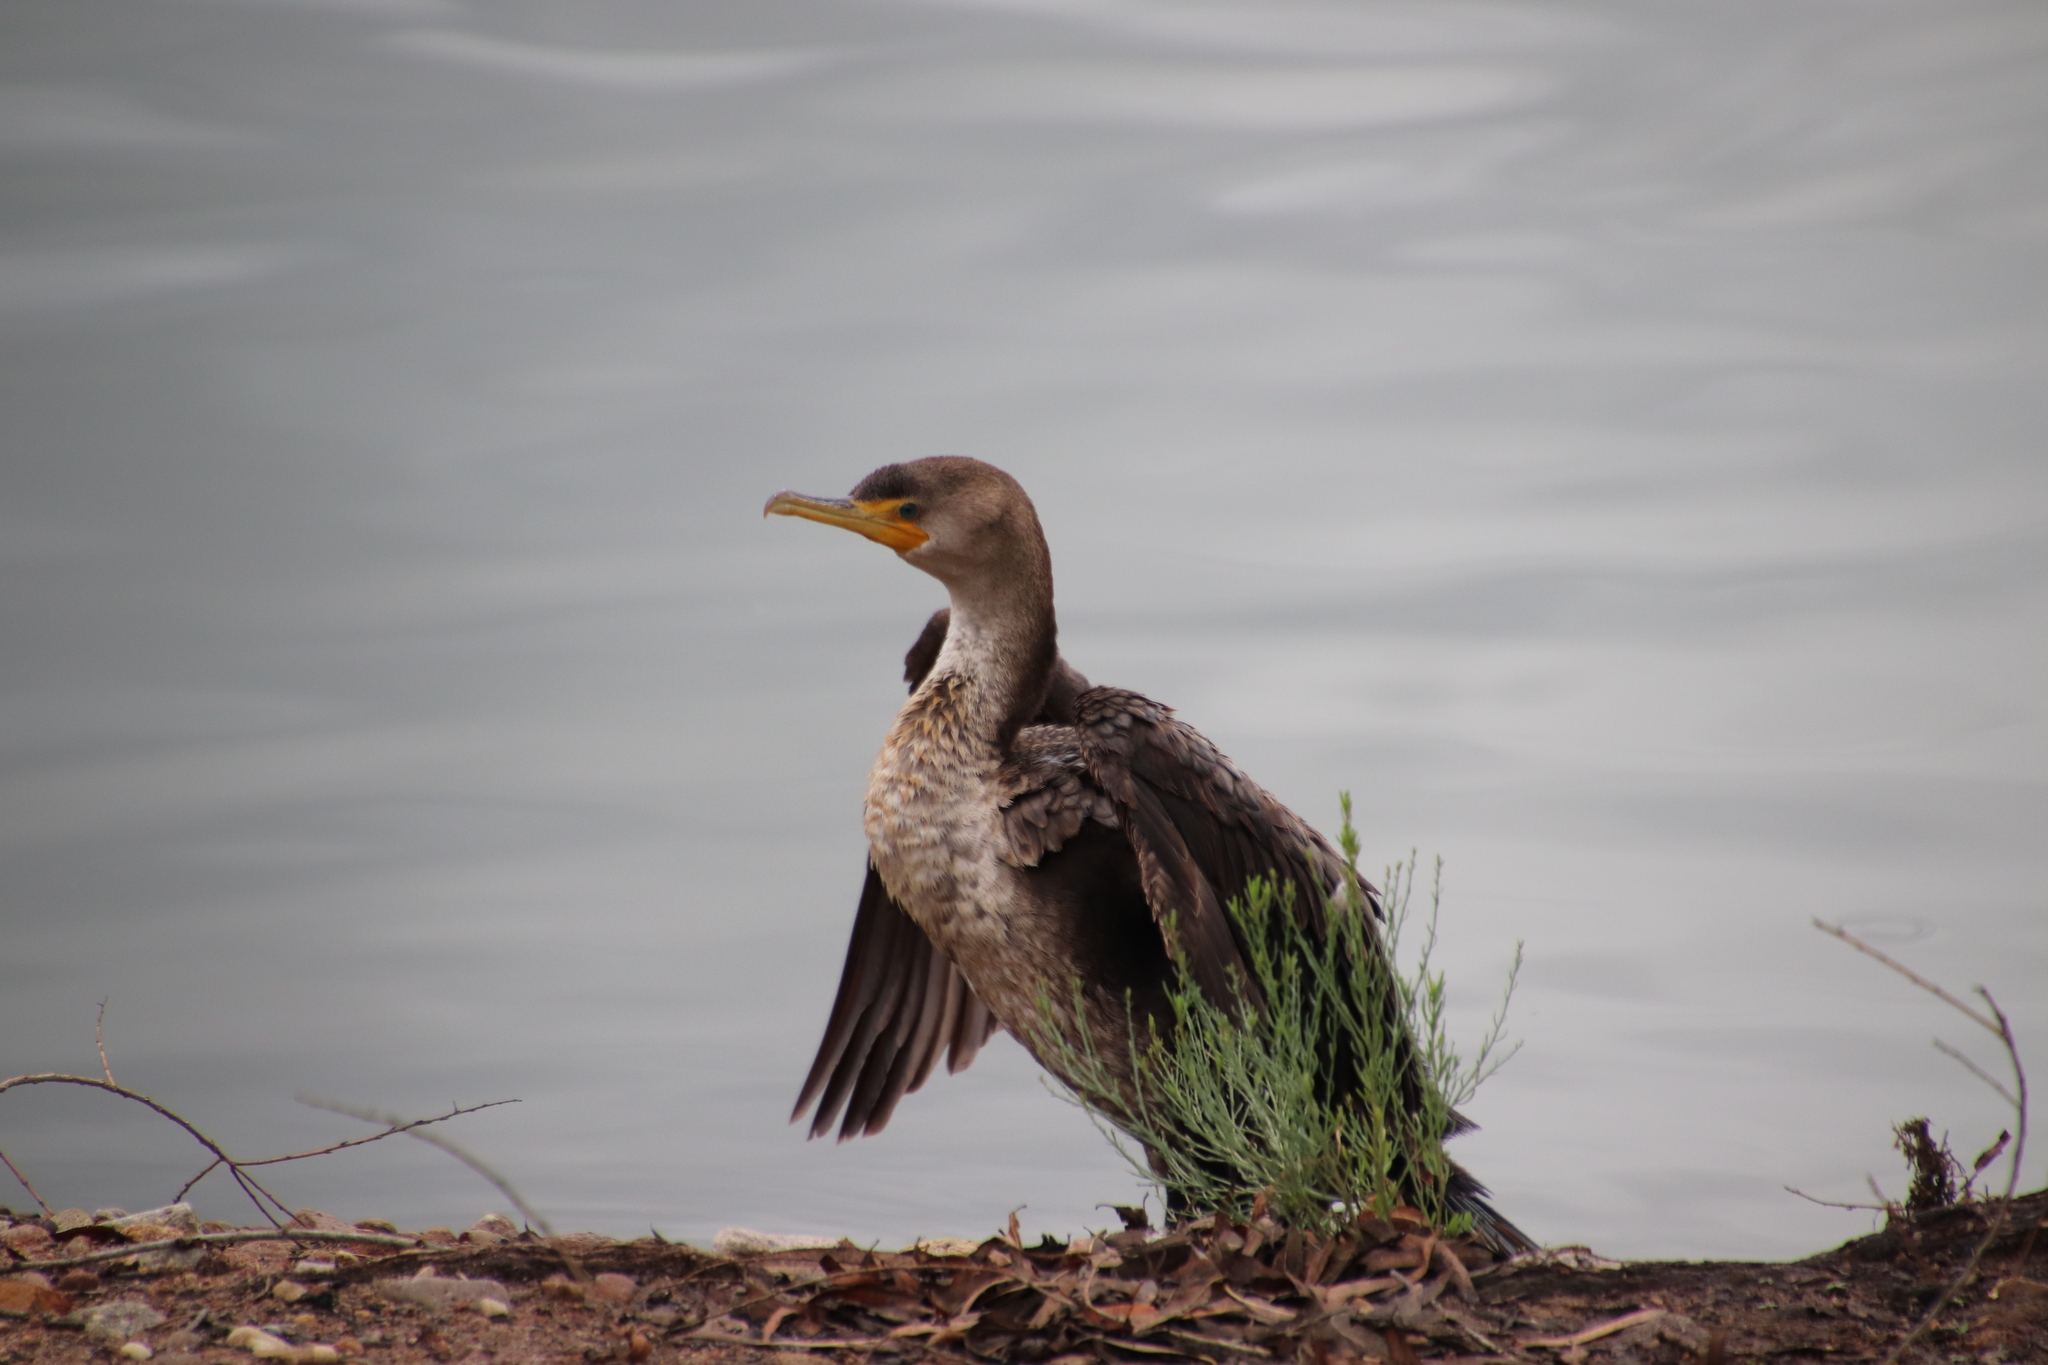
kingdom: Animalia
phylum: Chordata
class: Aves
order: Suliformes
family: Phalacrocoracidae
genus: Phalacrocorax
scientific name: Phalacrocorax auritus
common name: Double-crested cormorant
